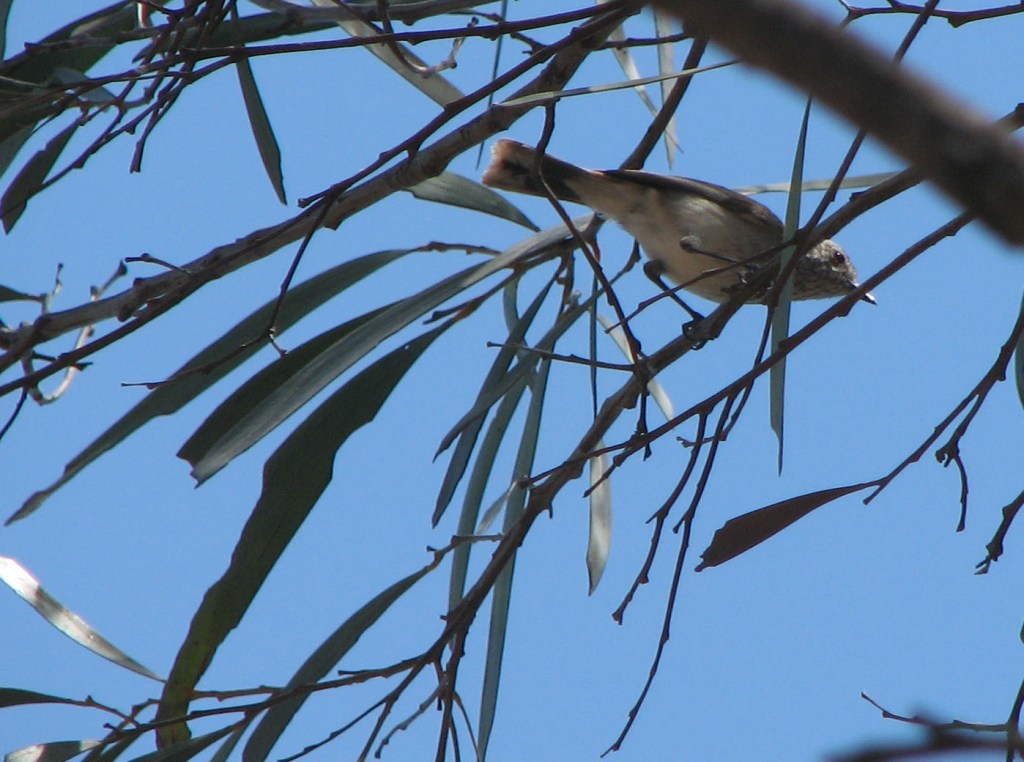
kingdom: Animalia
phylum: Chordata
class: Aves
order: Passeriformes
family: Acanthizidae
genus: Acanthiza
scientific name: Acanthiza apicalis
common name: Inland thornbill
